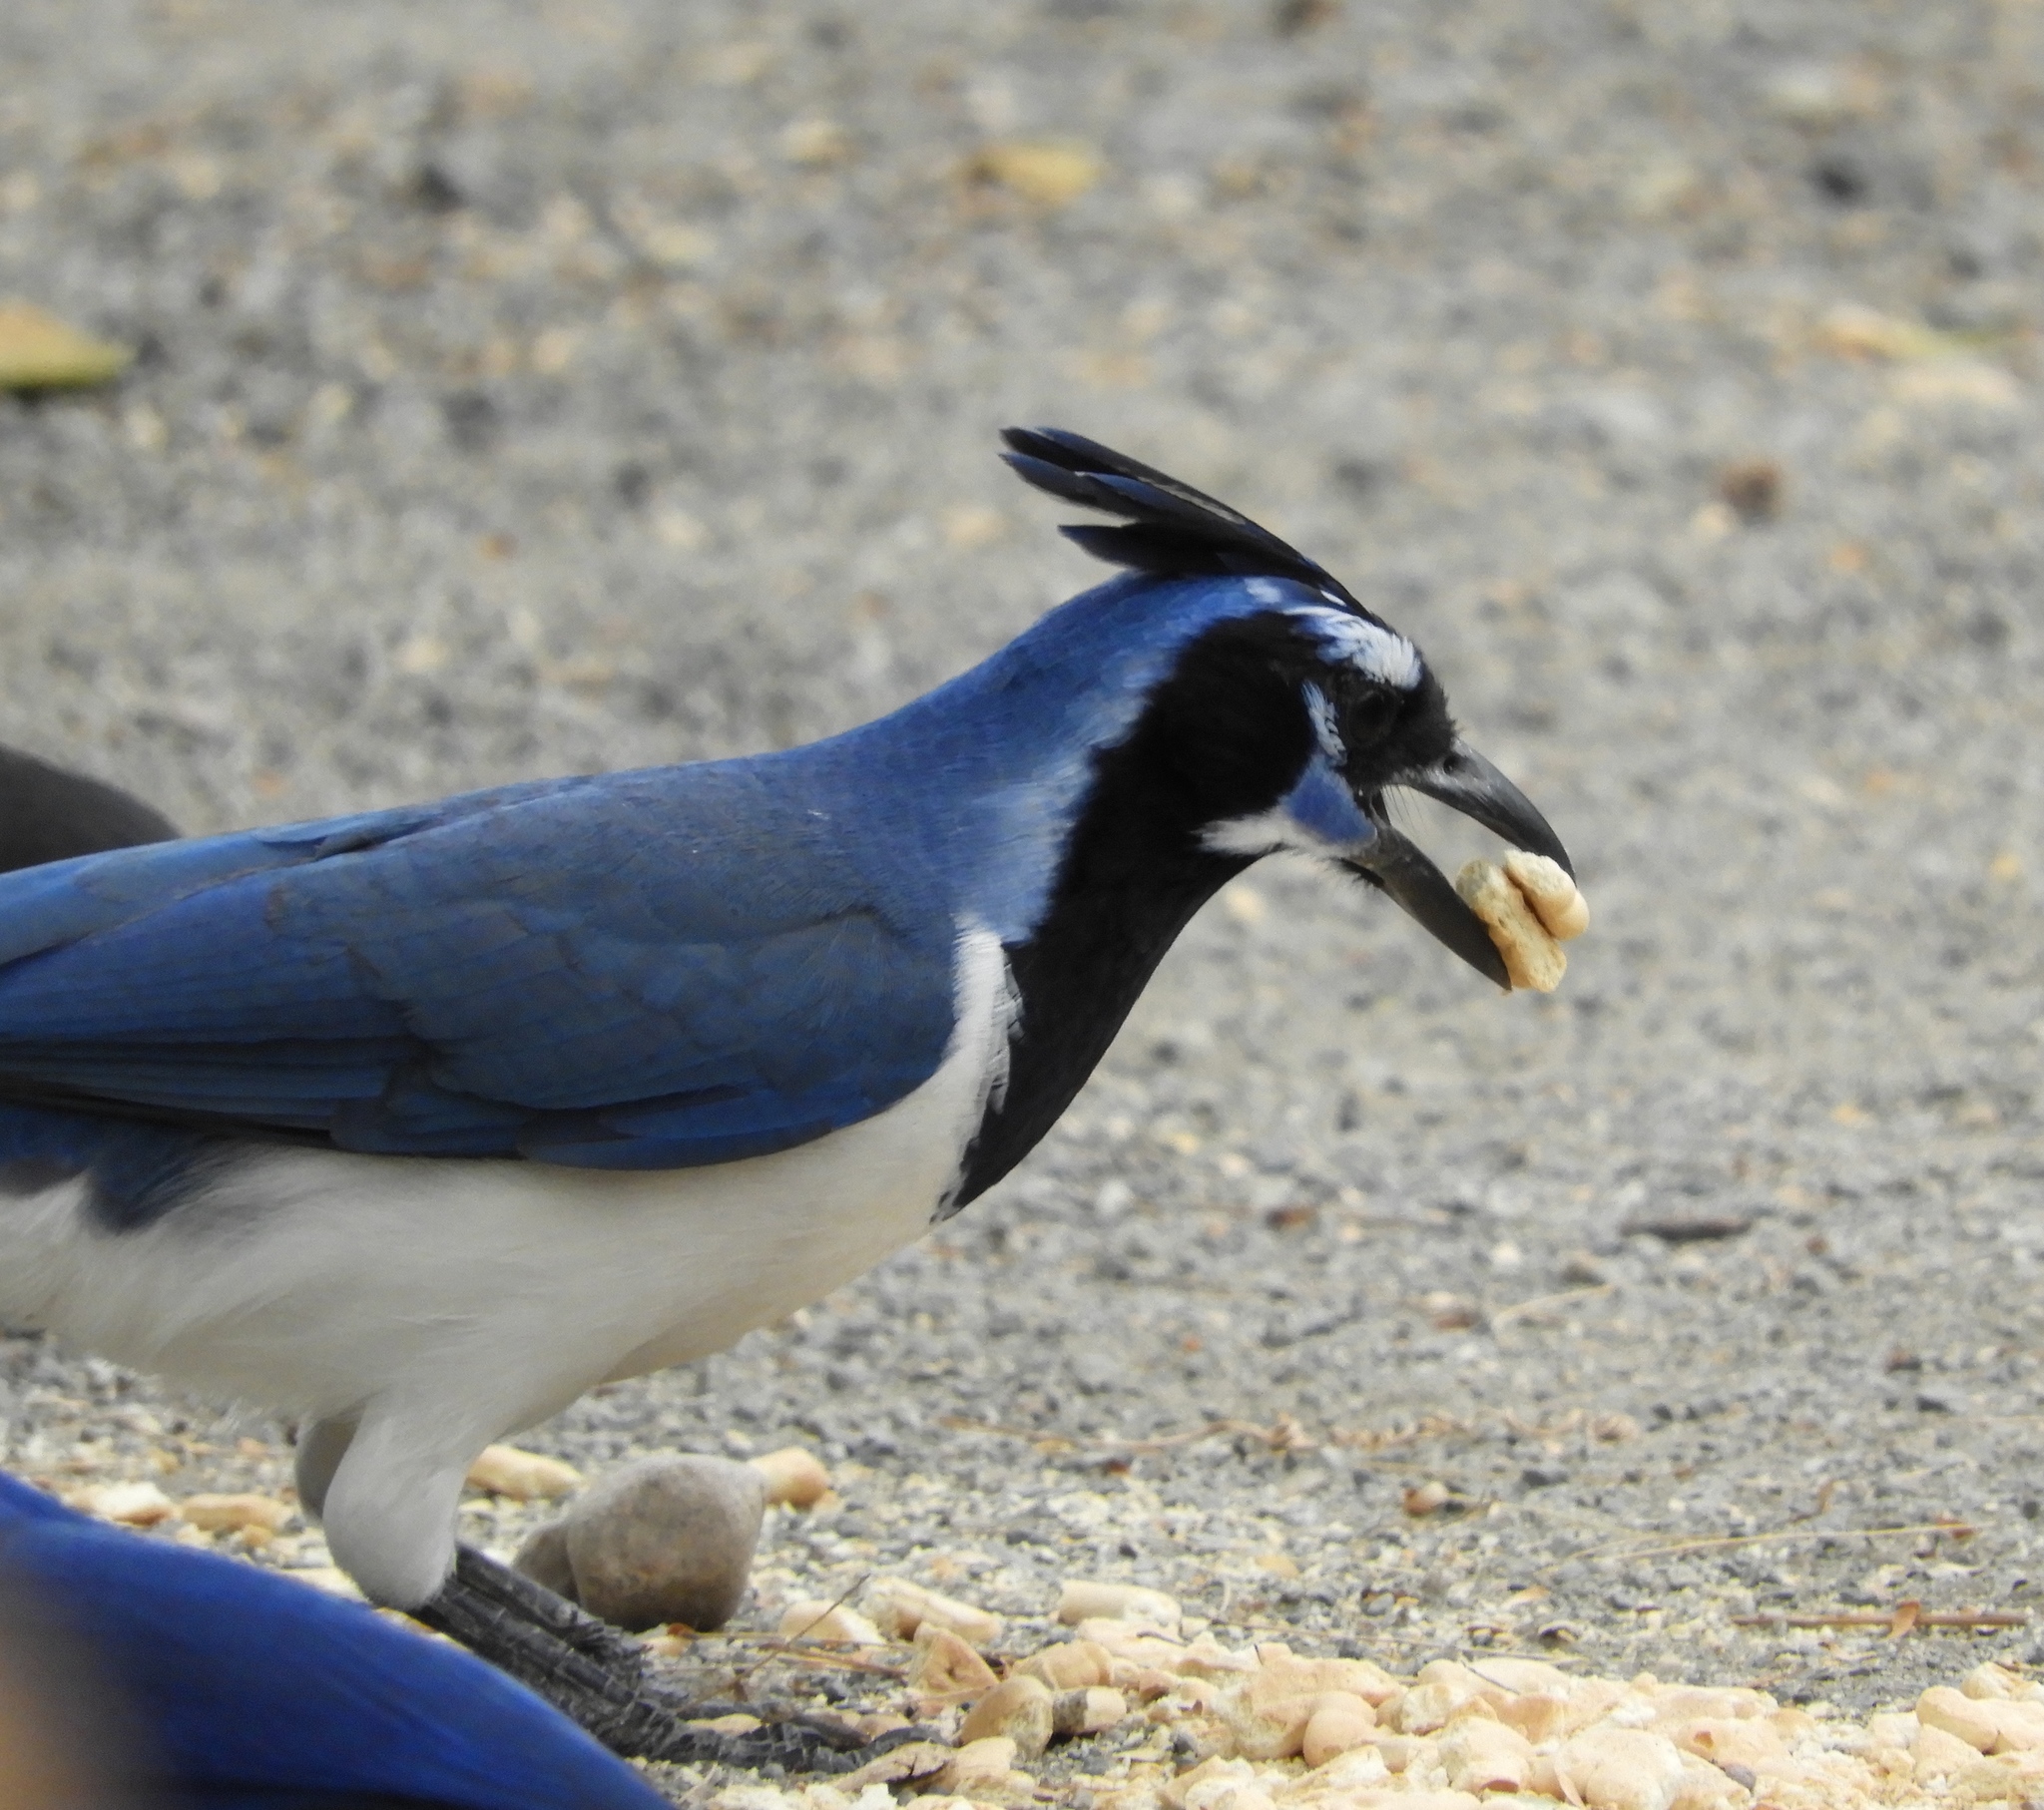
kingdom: Animalia
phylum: Chordata
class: Aves
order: Passeriformes
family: Corvidae
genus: Calocitta
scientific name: Calocitta colliei
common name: Black-throated magpie-jay
